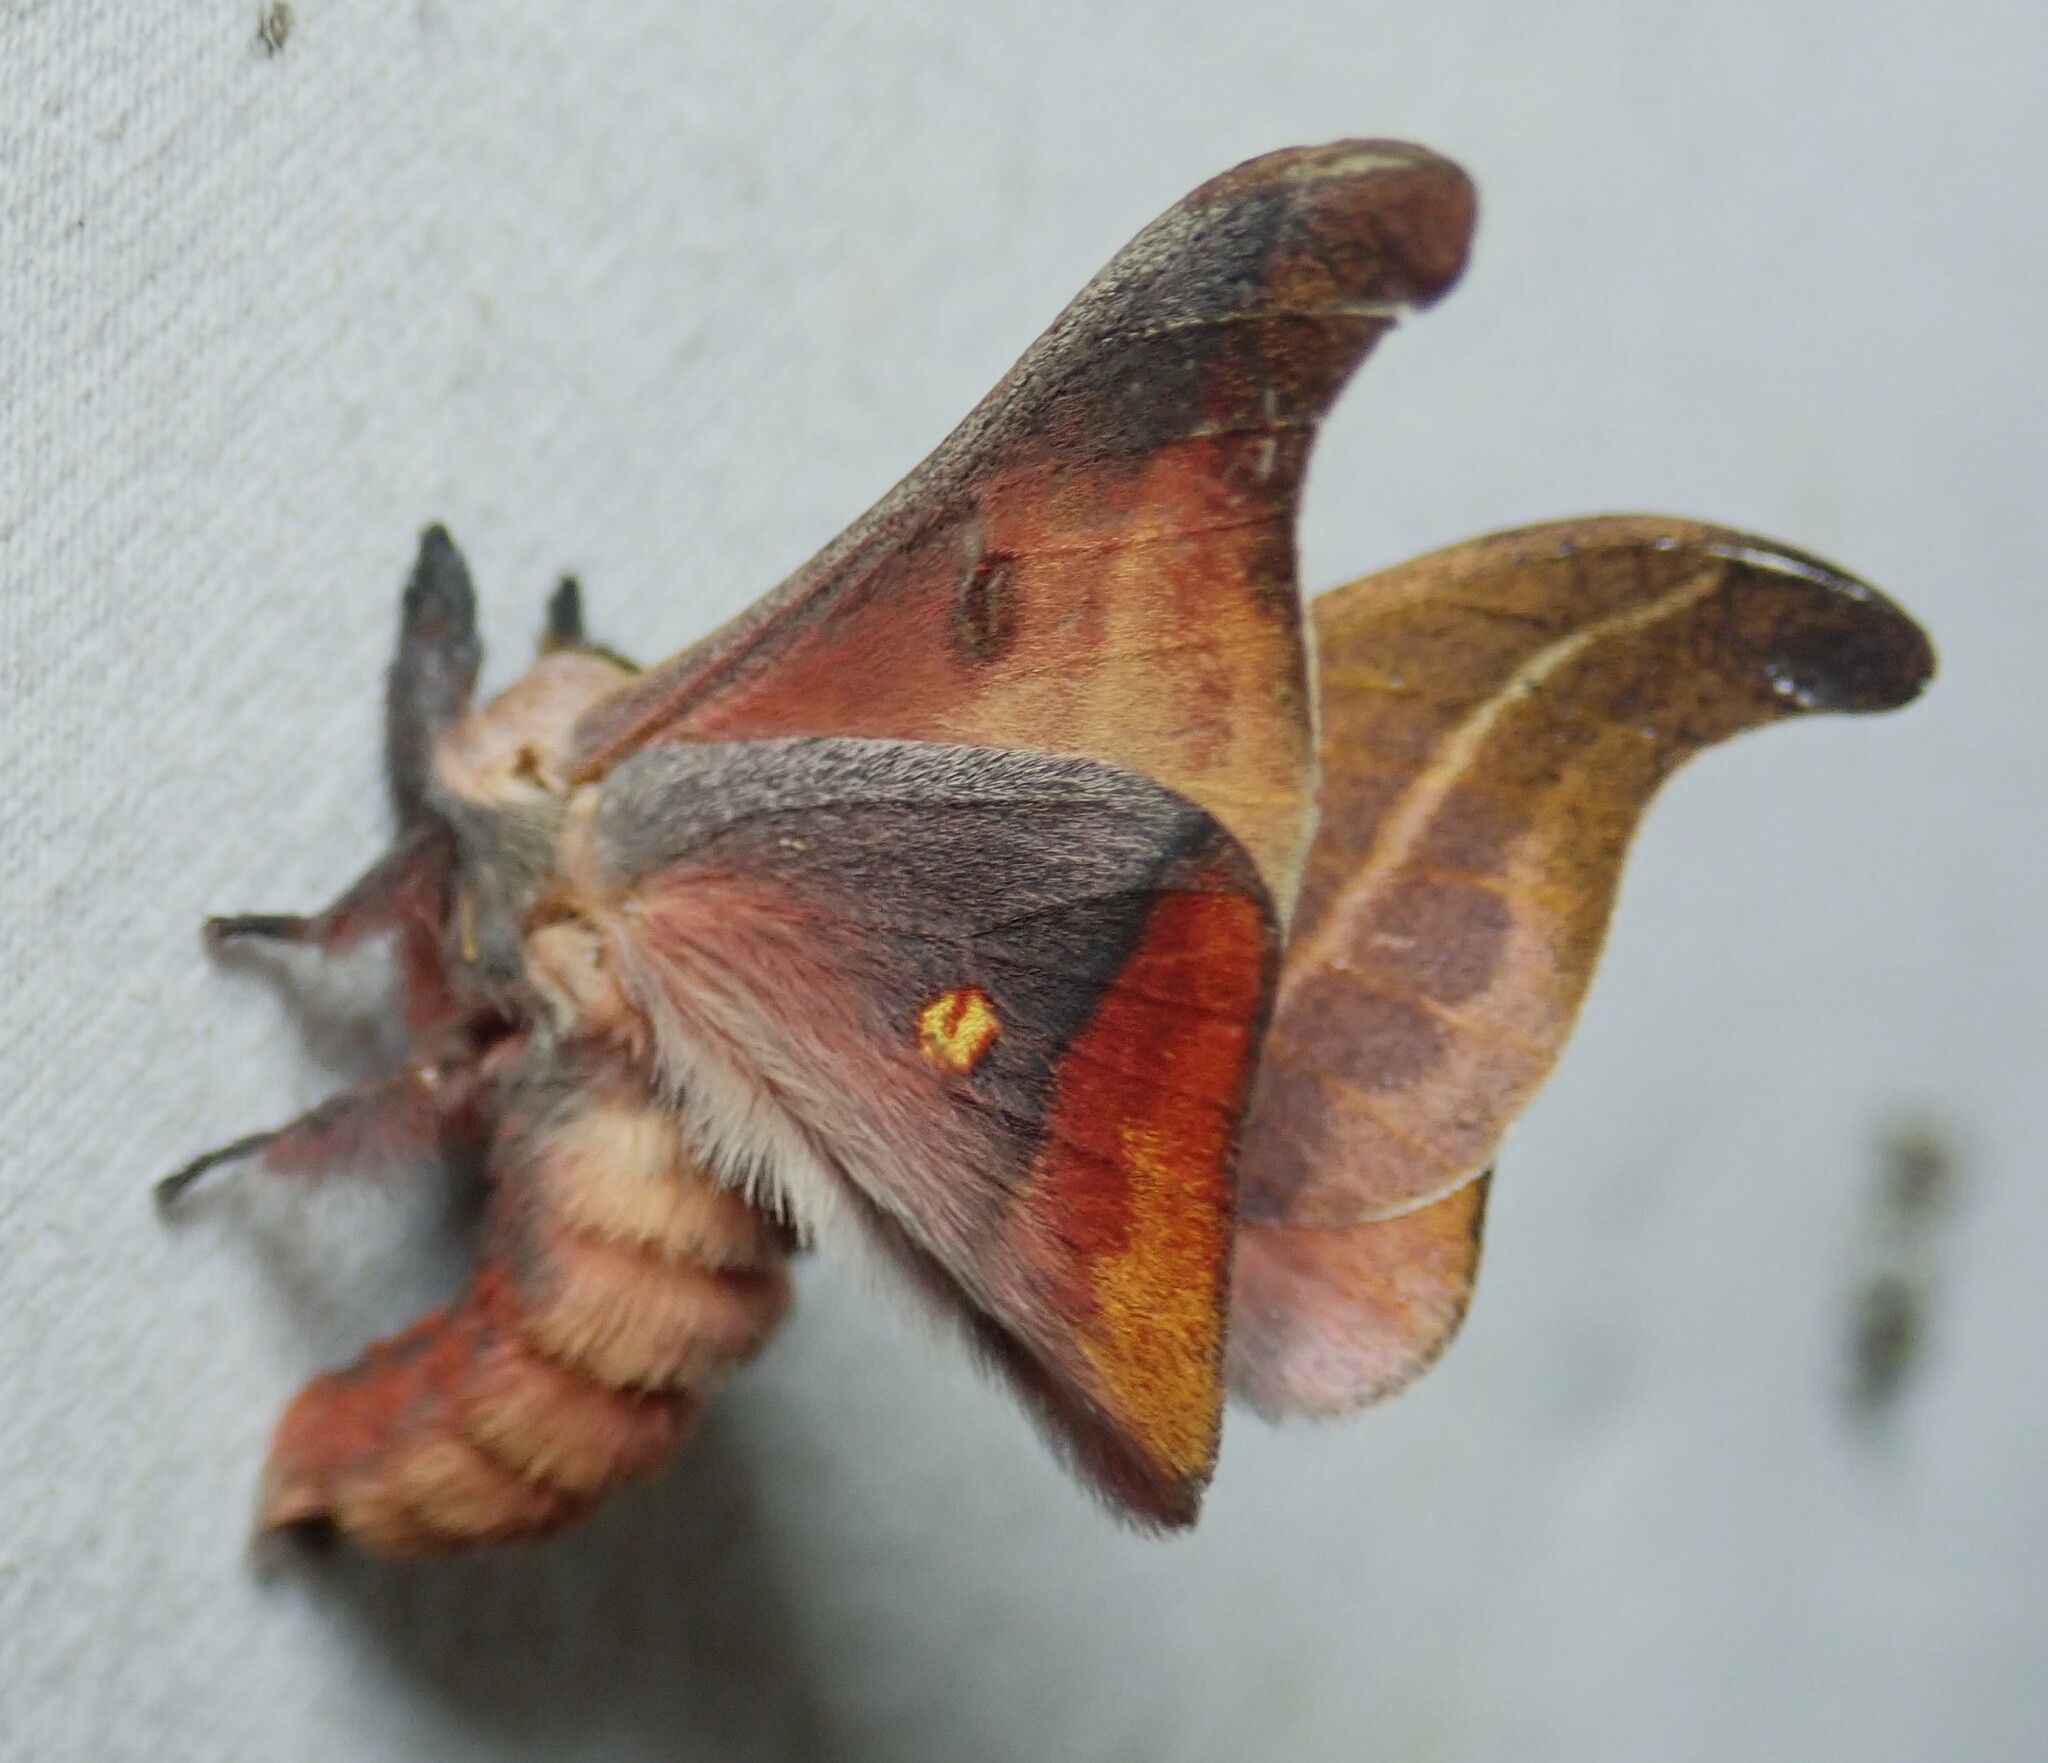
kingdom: Animalia
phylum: Arthropoda
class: Insecta
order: Lepidoptera
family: Saturniidae
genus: Hylesia
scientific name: Hylesia nanus
